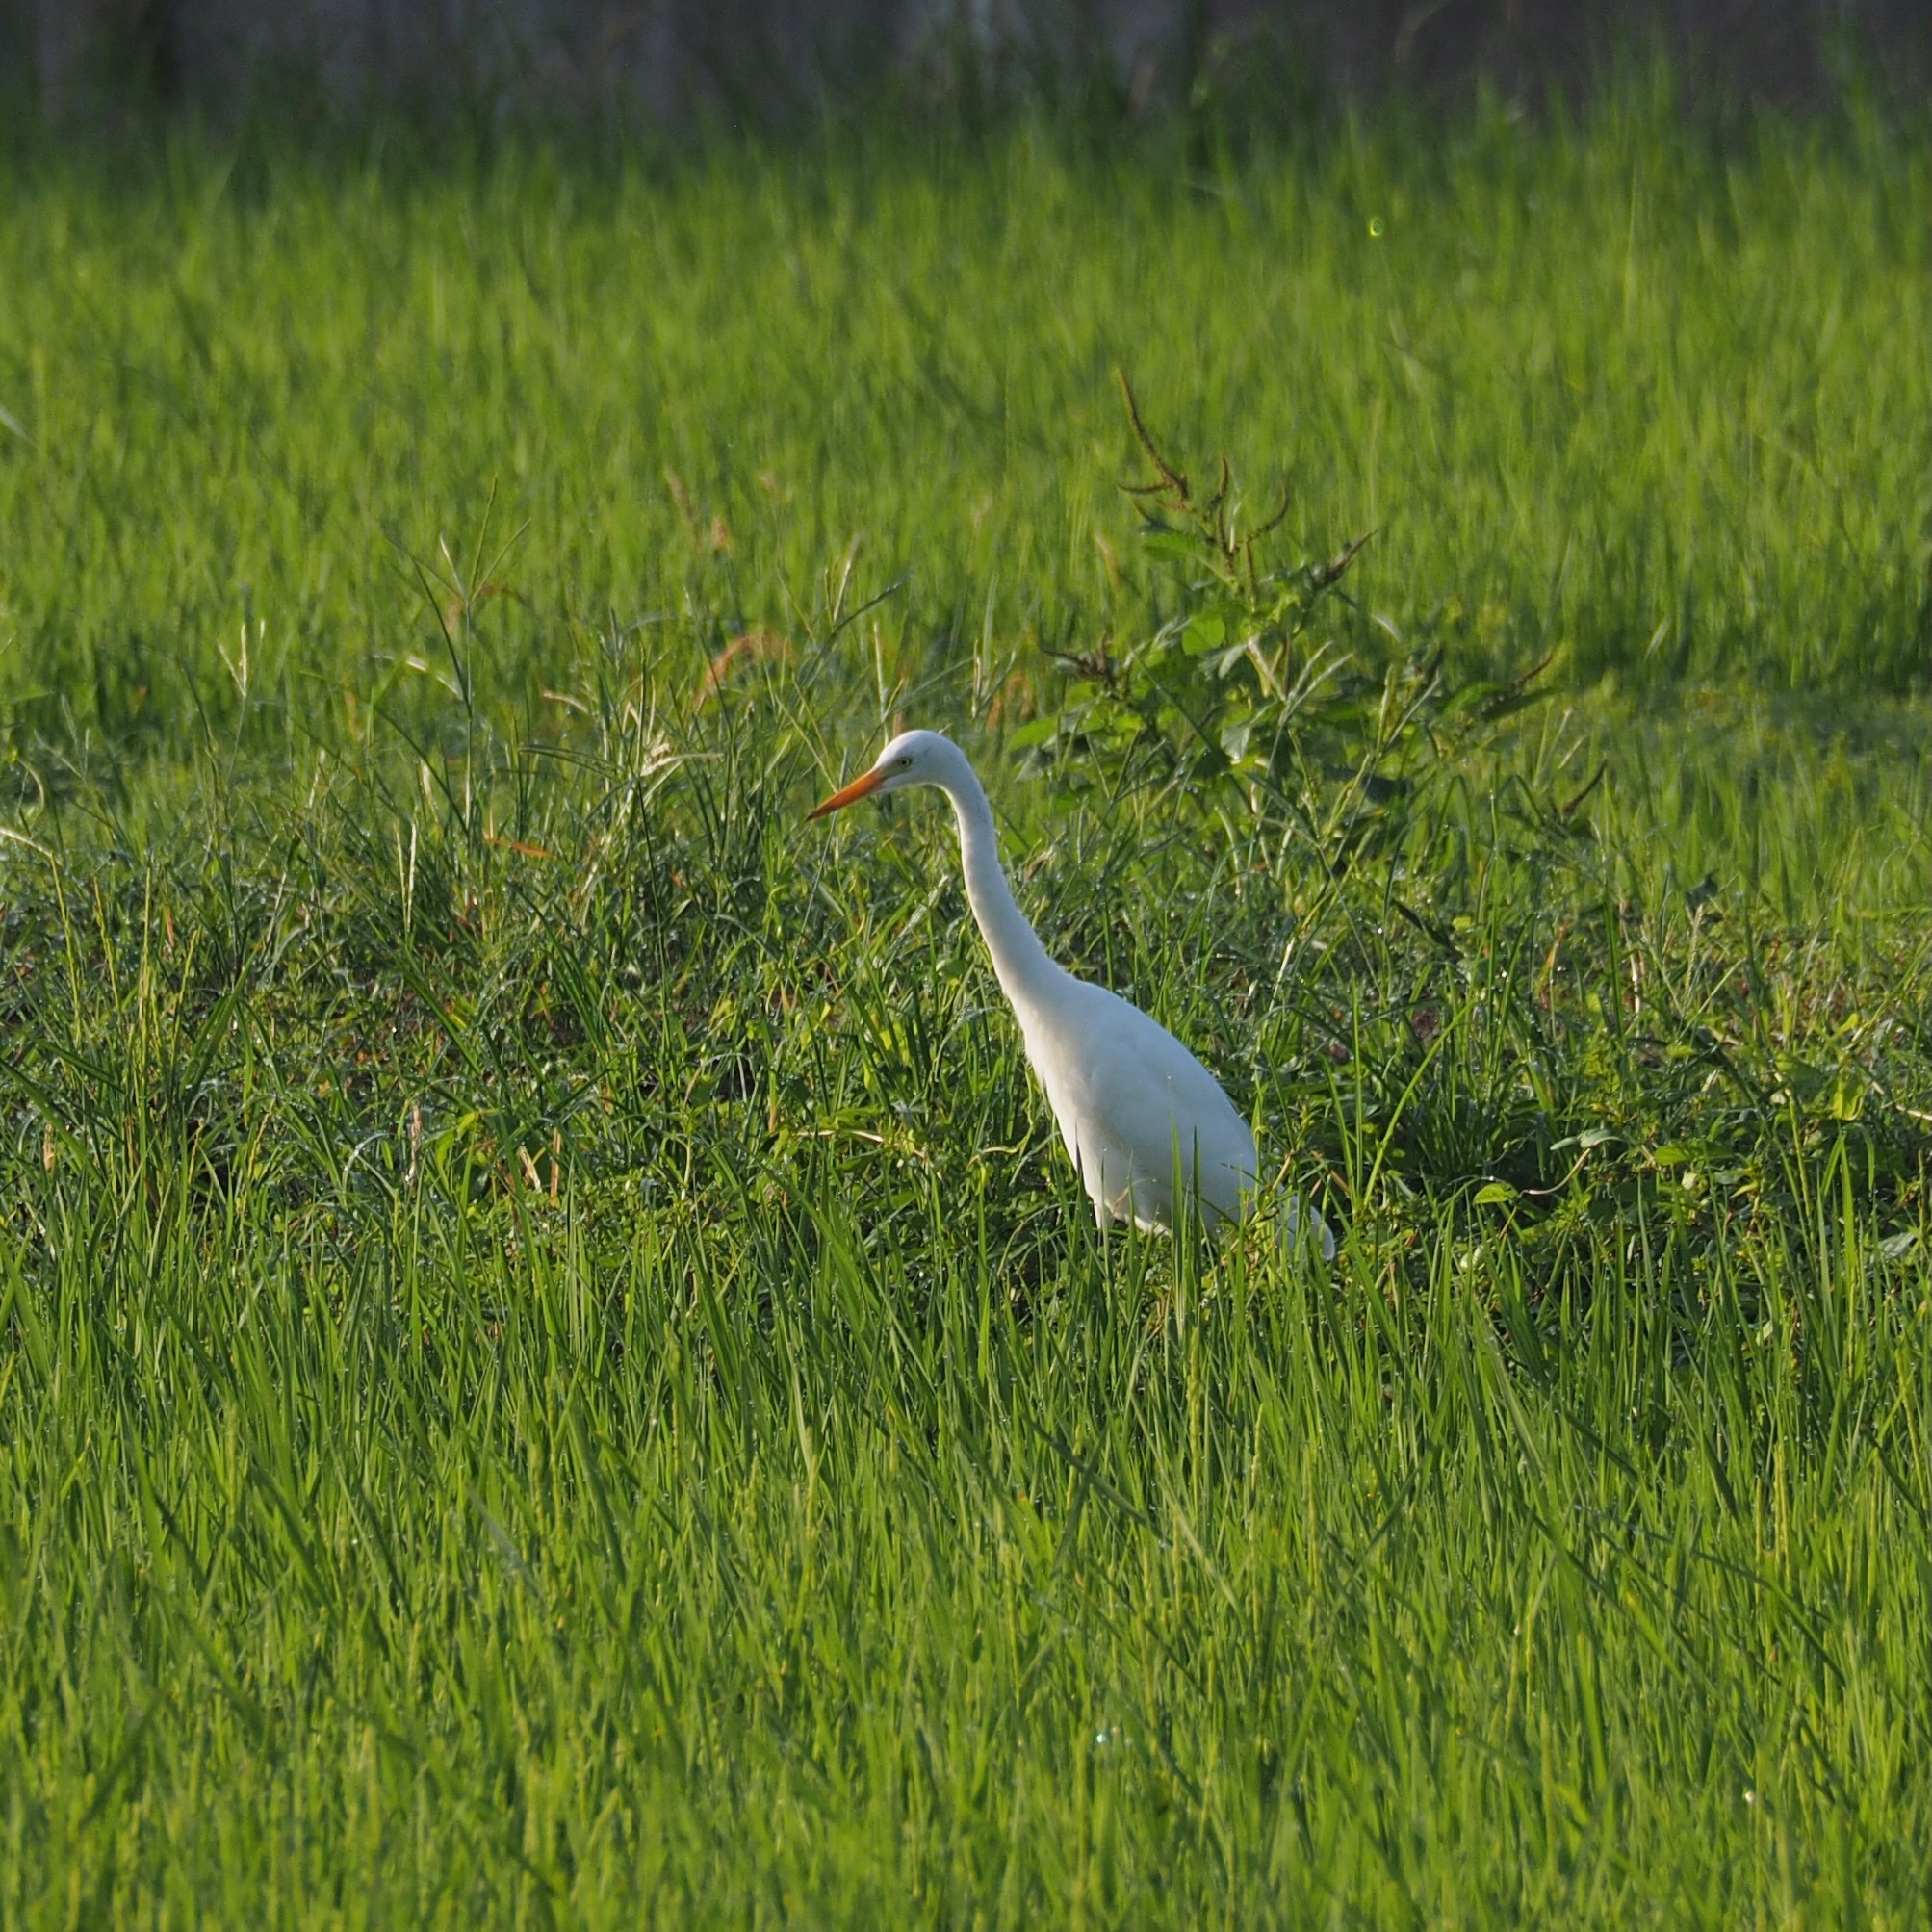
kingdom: Animalia
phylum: Chordata
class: Aves
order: Pelecaniformes
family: Ardeidae
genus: Egretta
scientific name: Egretta intermedia
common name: Intermediate egret
